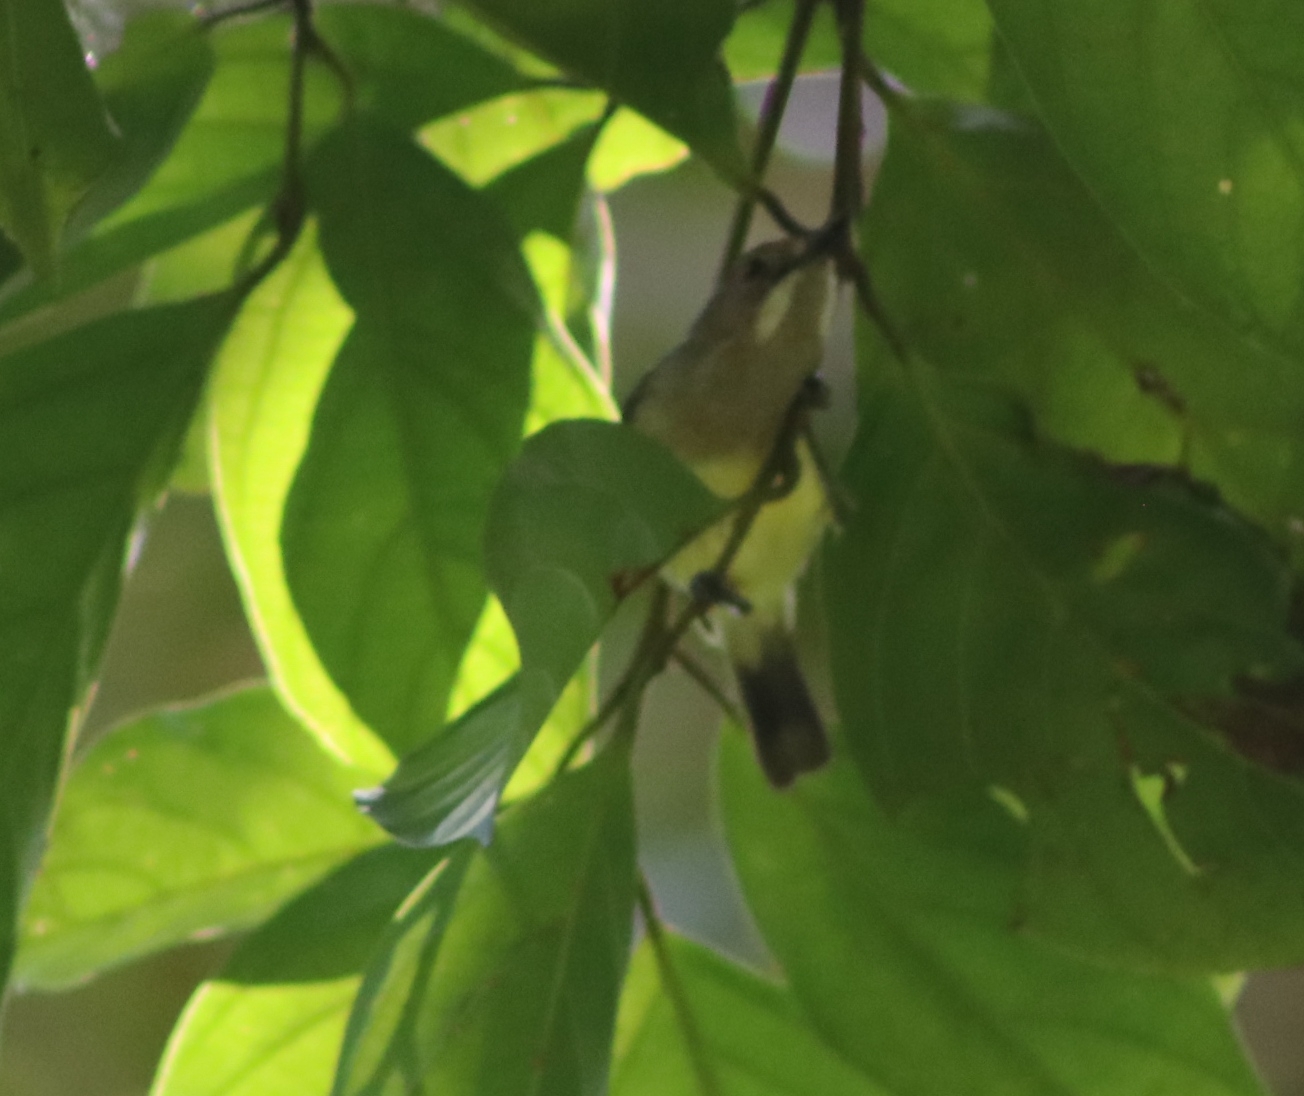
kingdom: Animalia
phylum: Chordata
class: Aves
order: Passeriformes
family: Acanthizidae
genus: Gerygone
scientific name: Gerygone palpebrosa
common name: Fairy gerygone
